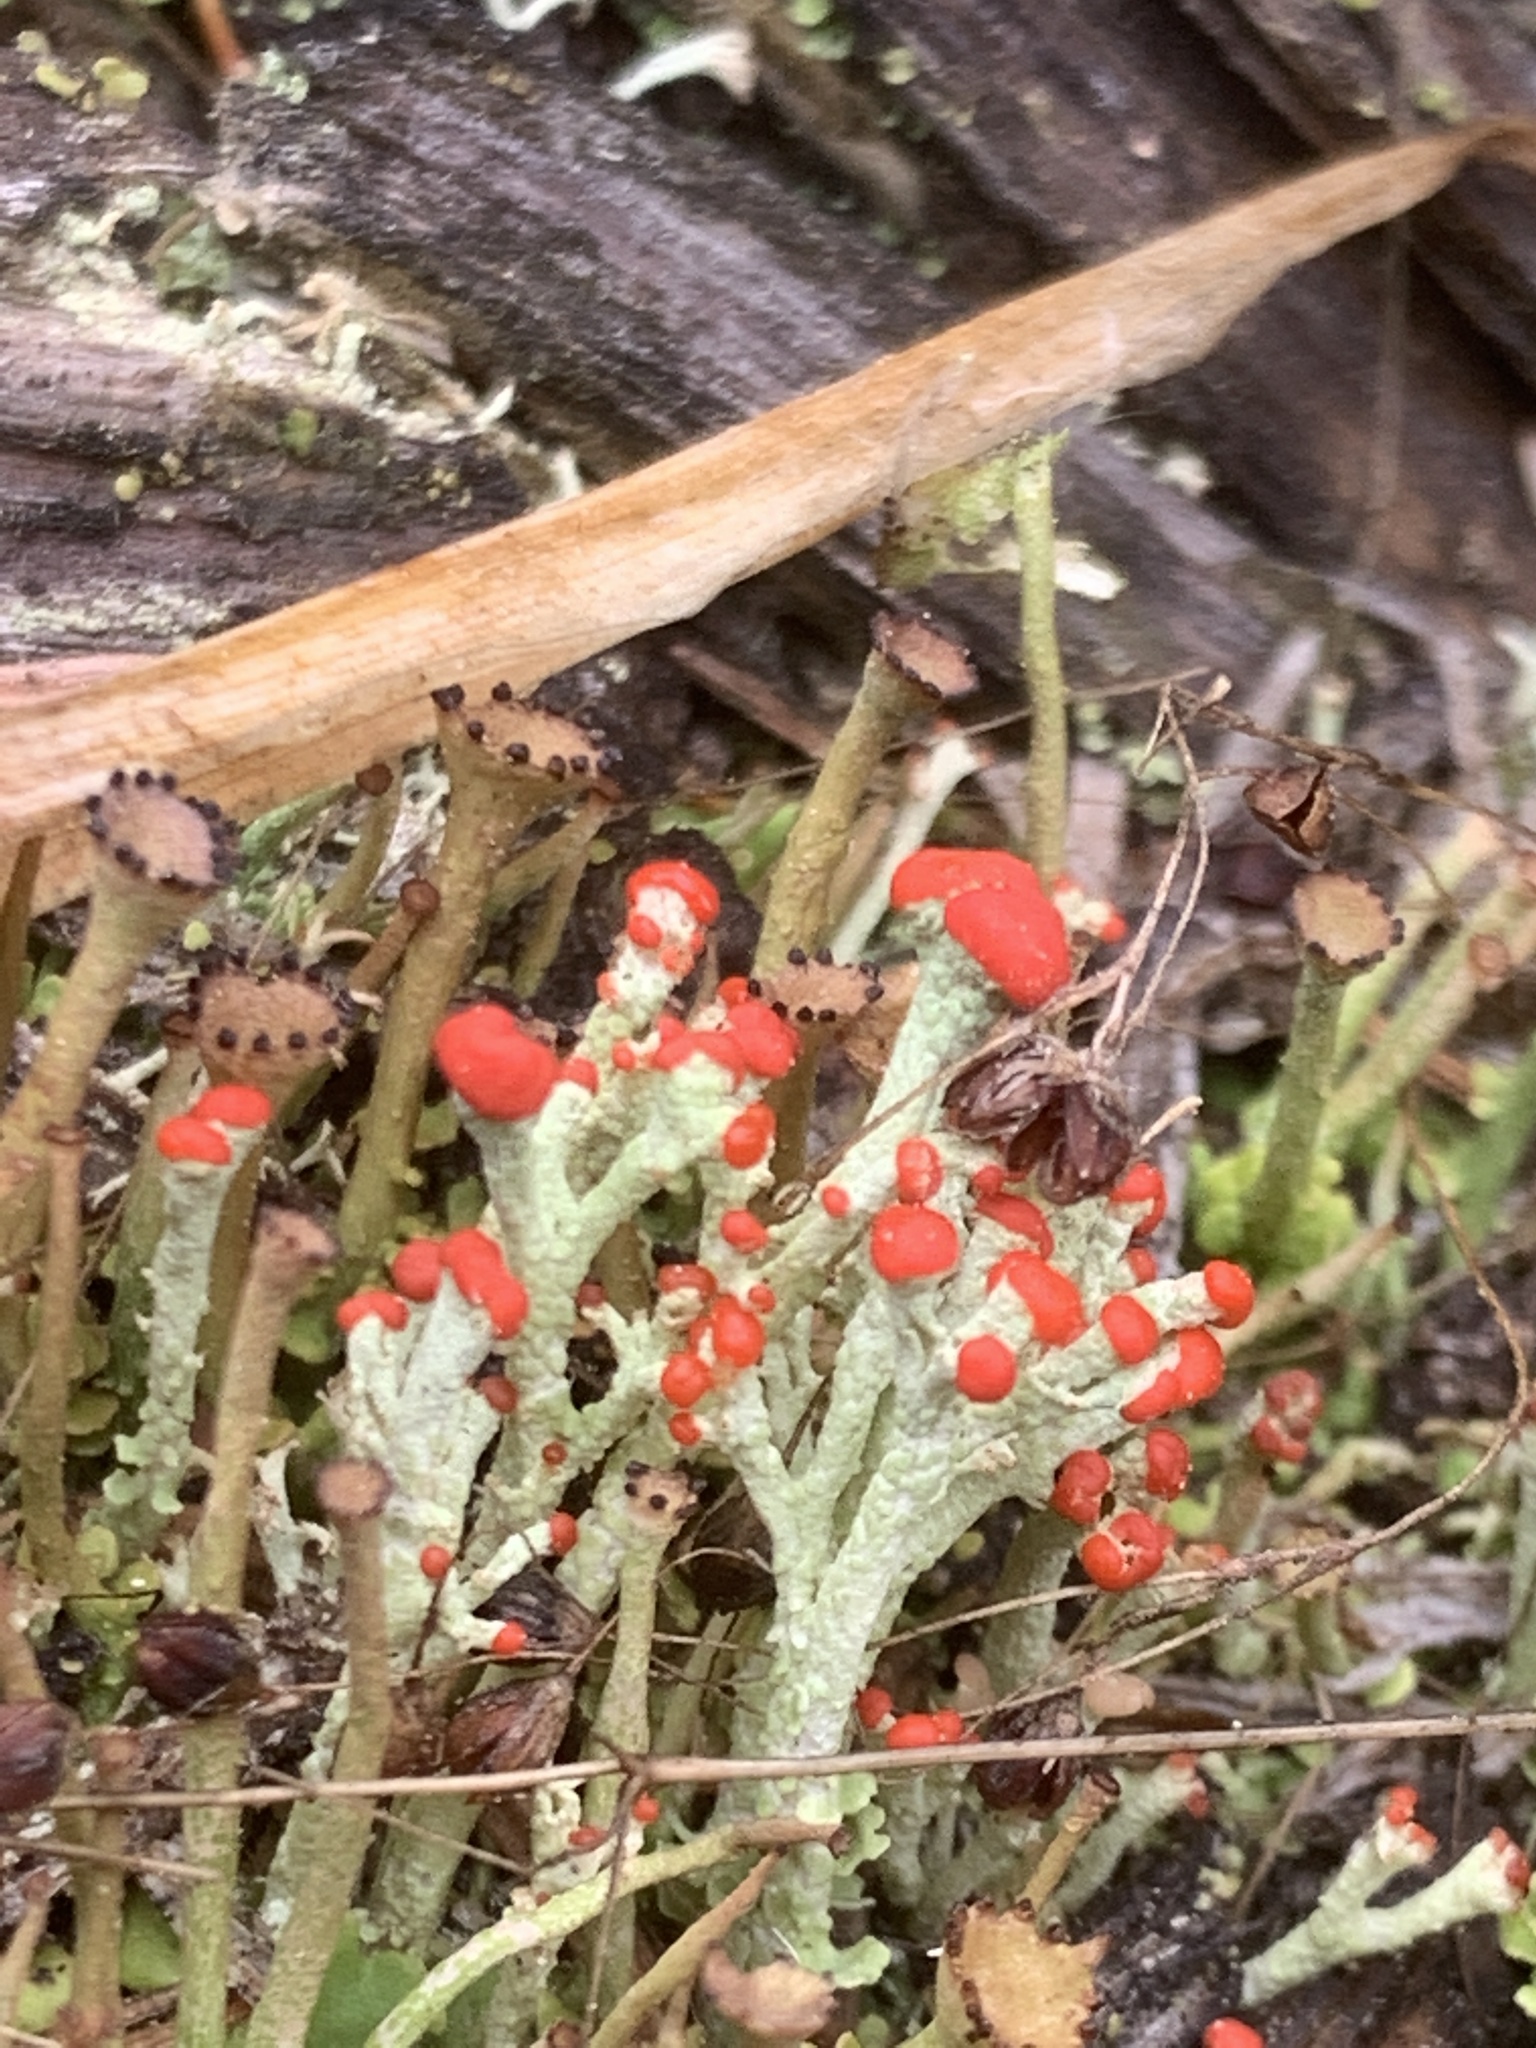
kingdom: Fungi
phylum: Ascomycota
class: Lecanoromycetes
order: Lecanorales
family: Cladoniaceae
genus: Cladonia
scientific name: Cladonia cristatella
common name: British soldier lichen
